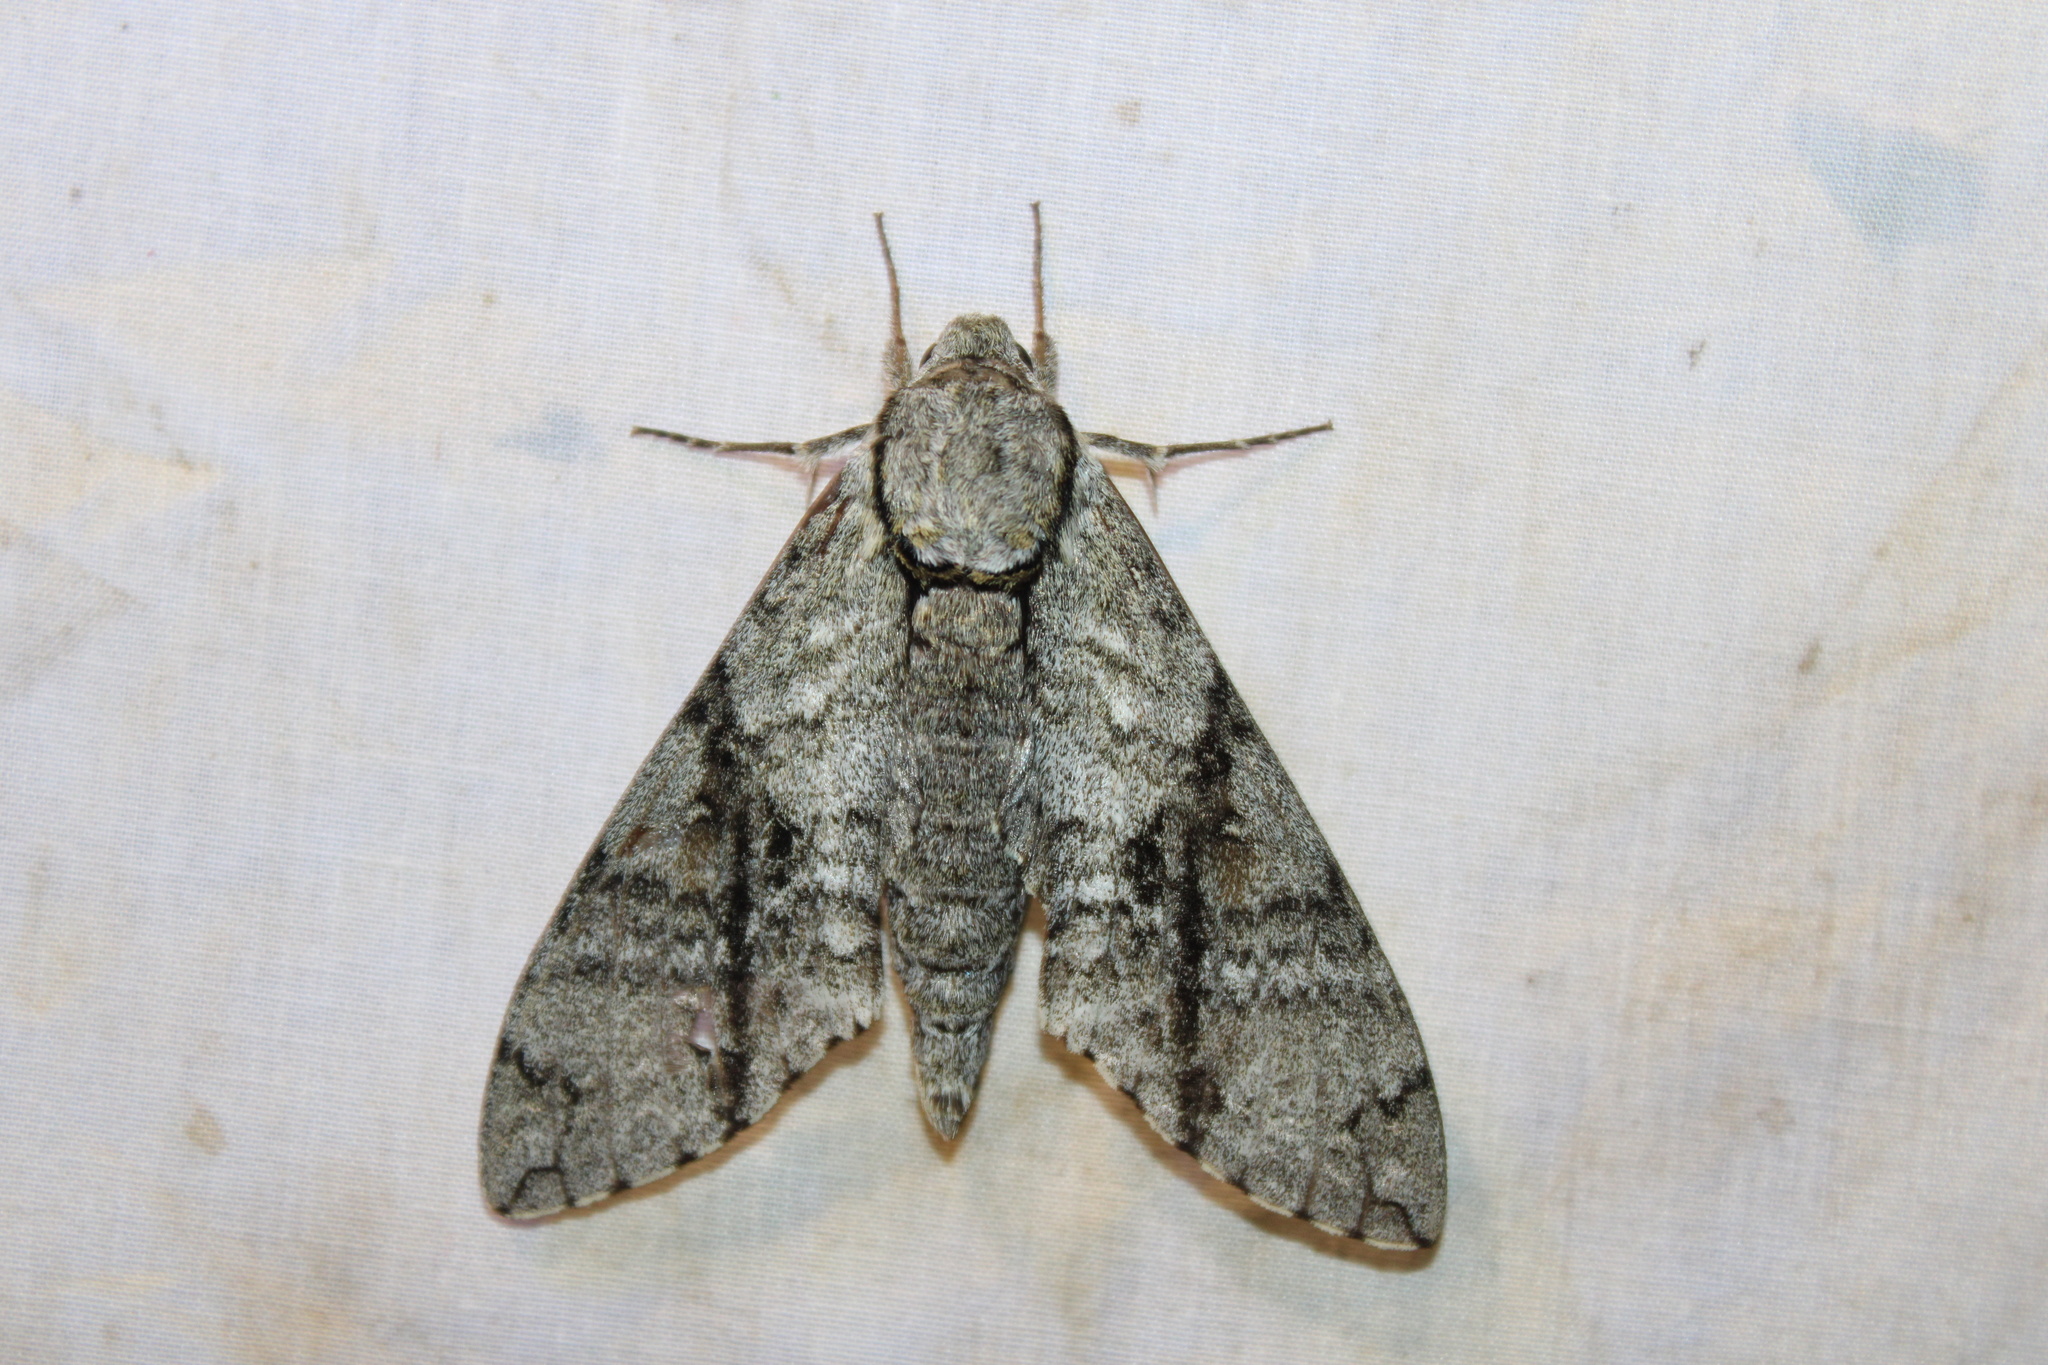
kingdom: Animalia
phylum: Arthropoda
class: Insecta
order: Lepidoptera
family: Sphingidae
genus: Manduca
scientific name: Manduca jasminearum
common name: Ash sphinx
